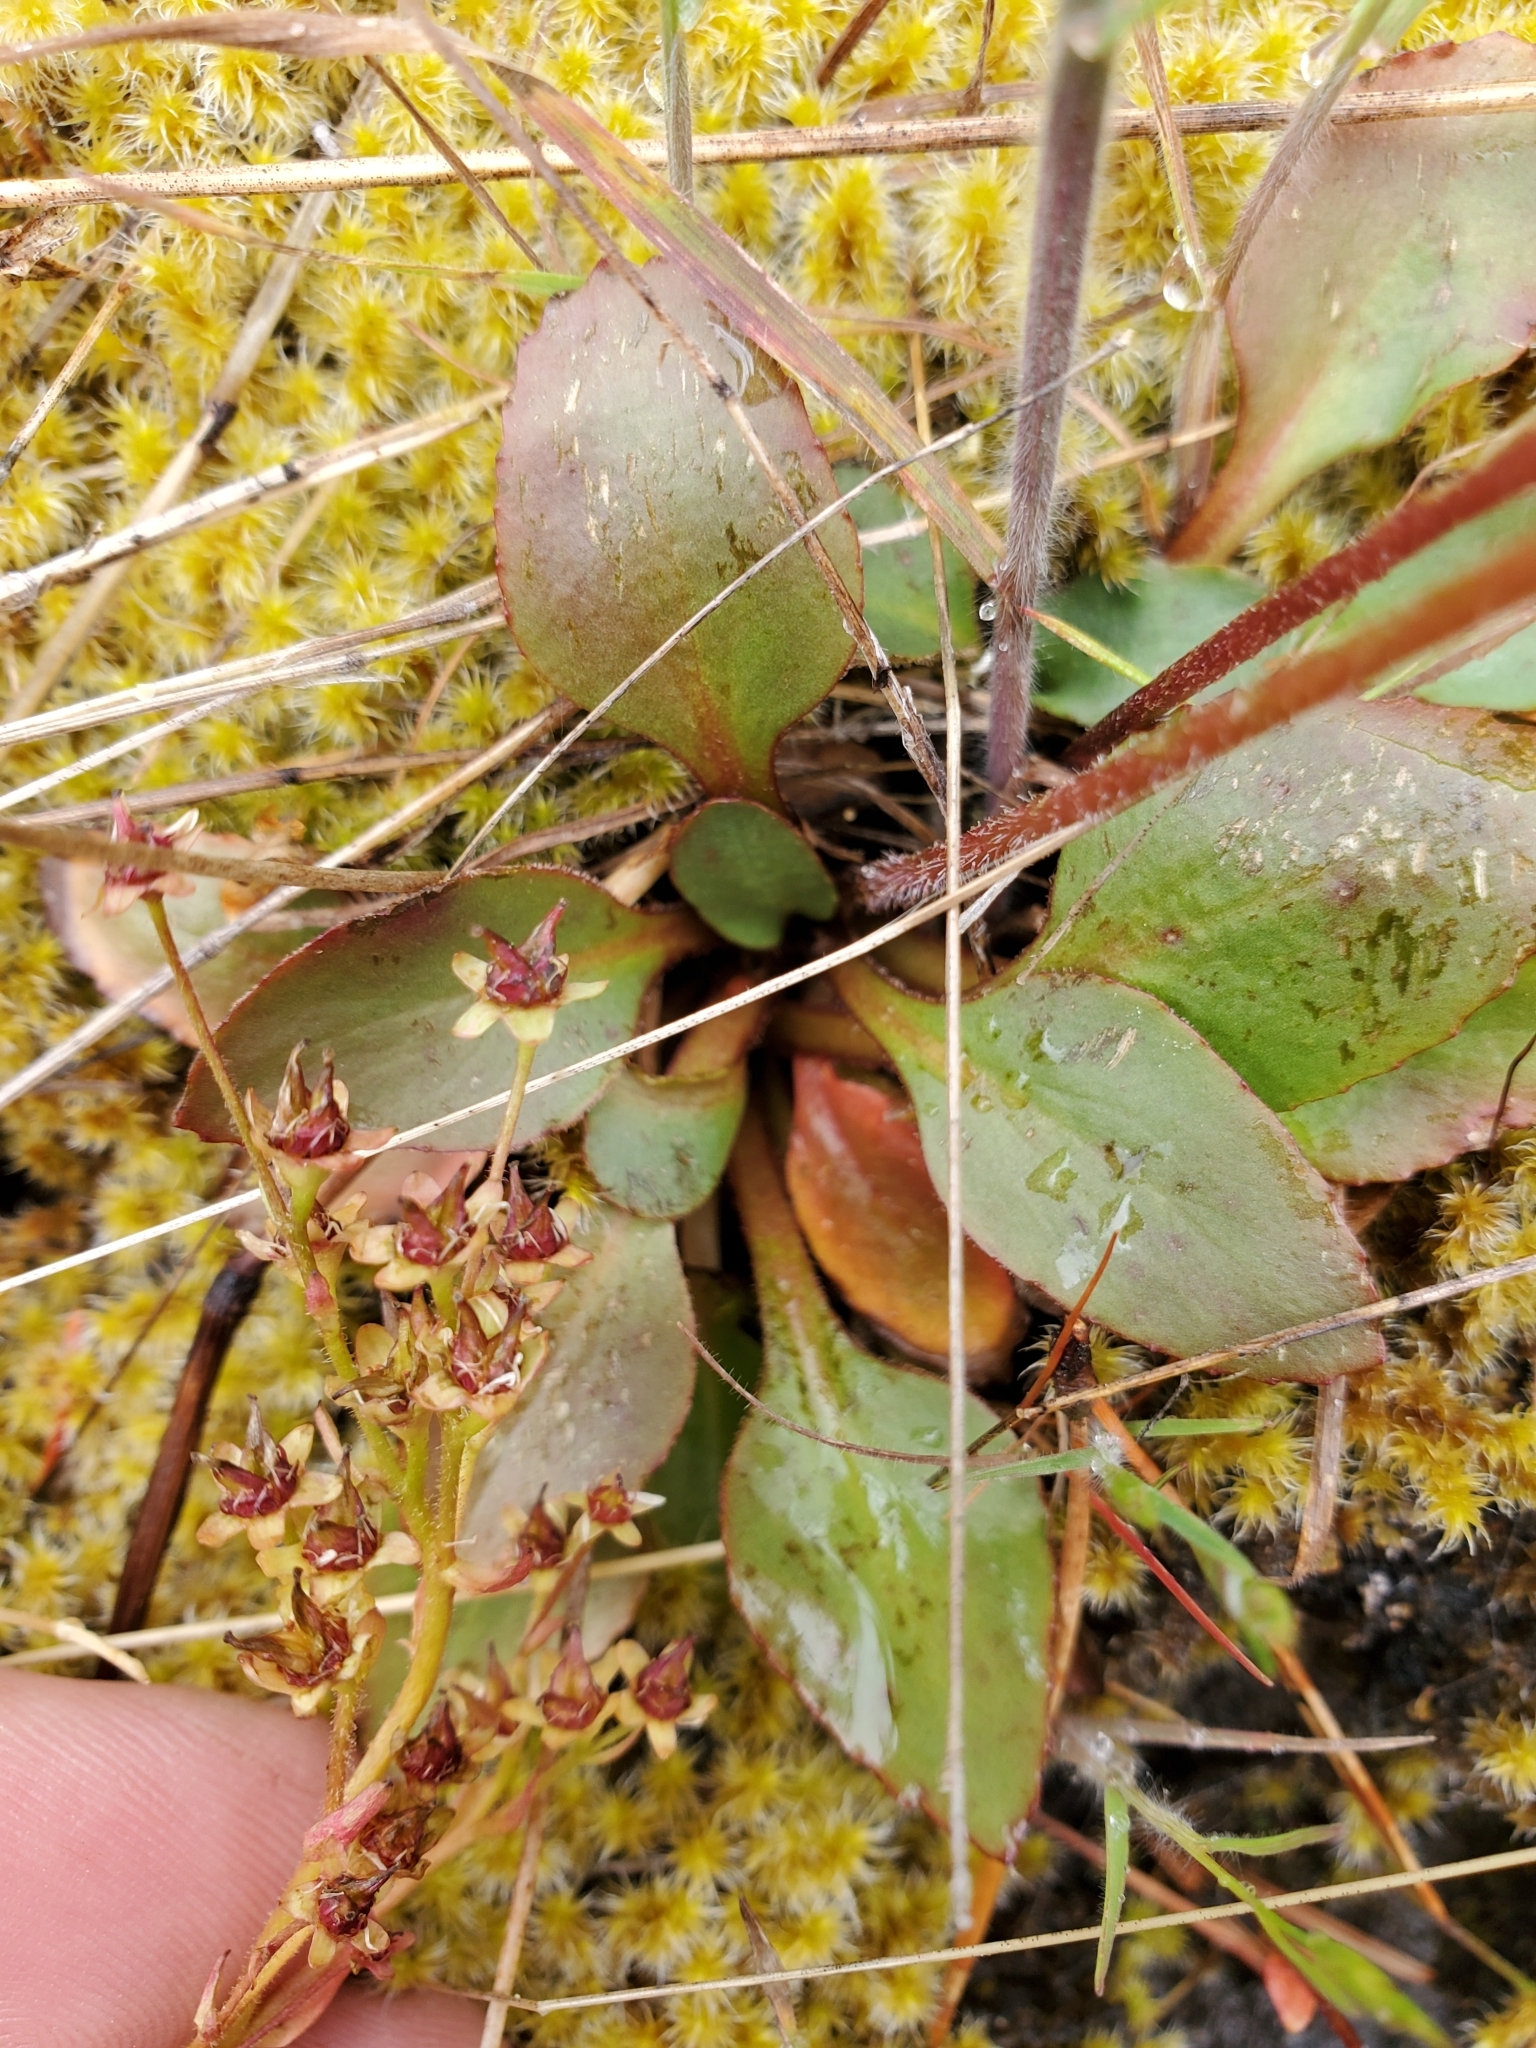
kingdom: Plantae
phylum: Tracheophyta
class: Magnoliopsida
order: Saxifragales
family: Saxifragaceae
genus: Micranthes
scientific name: Micranthes integrifolia
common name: Wholeleaf saxifrage
